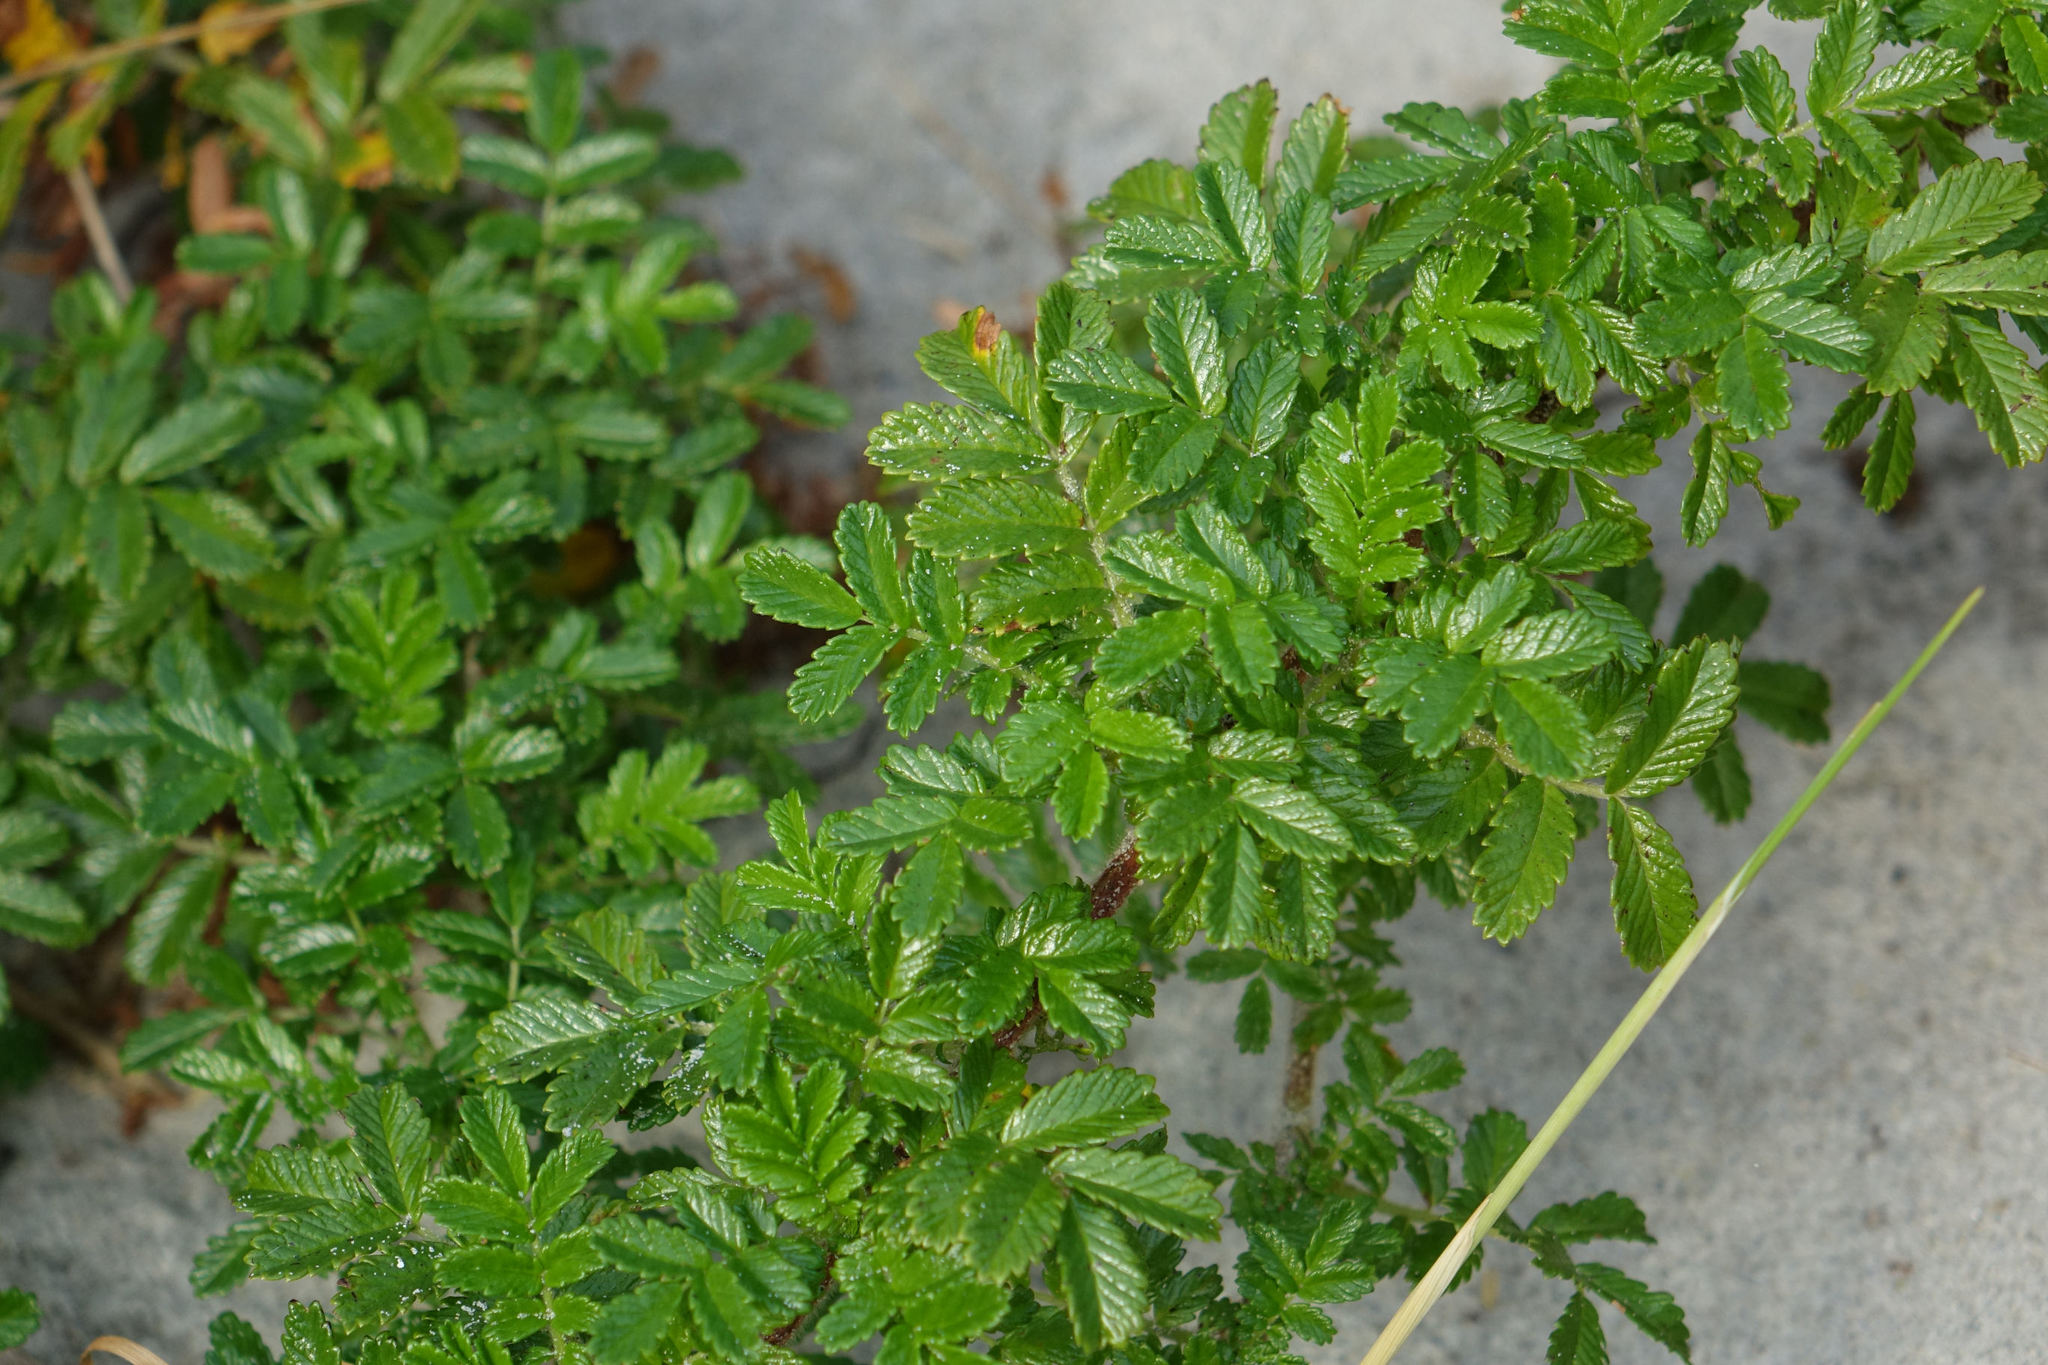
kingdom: Plantae
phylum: Tracheophyta
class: Magnoliopsida
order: Rosales
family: Rosaceae
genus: Acaena
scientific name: Acaena pallida
